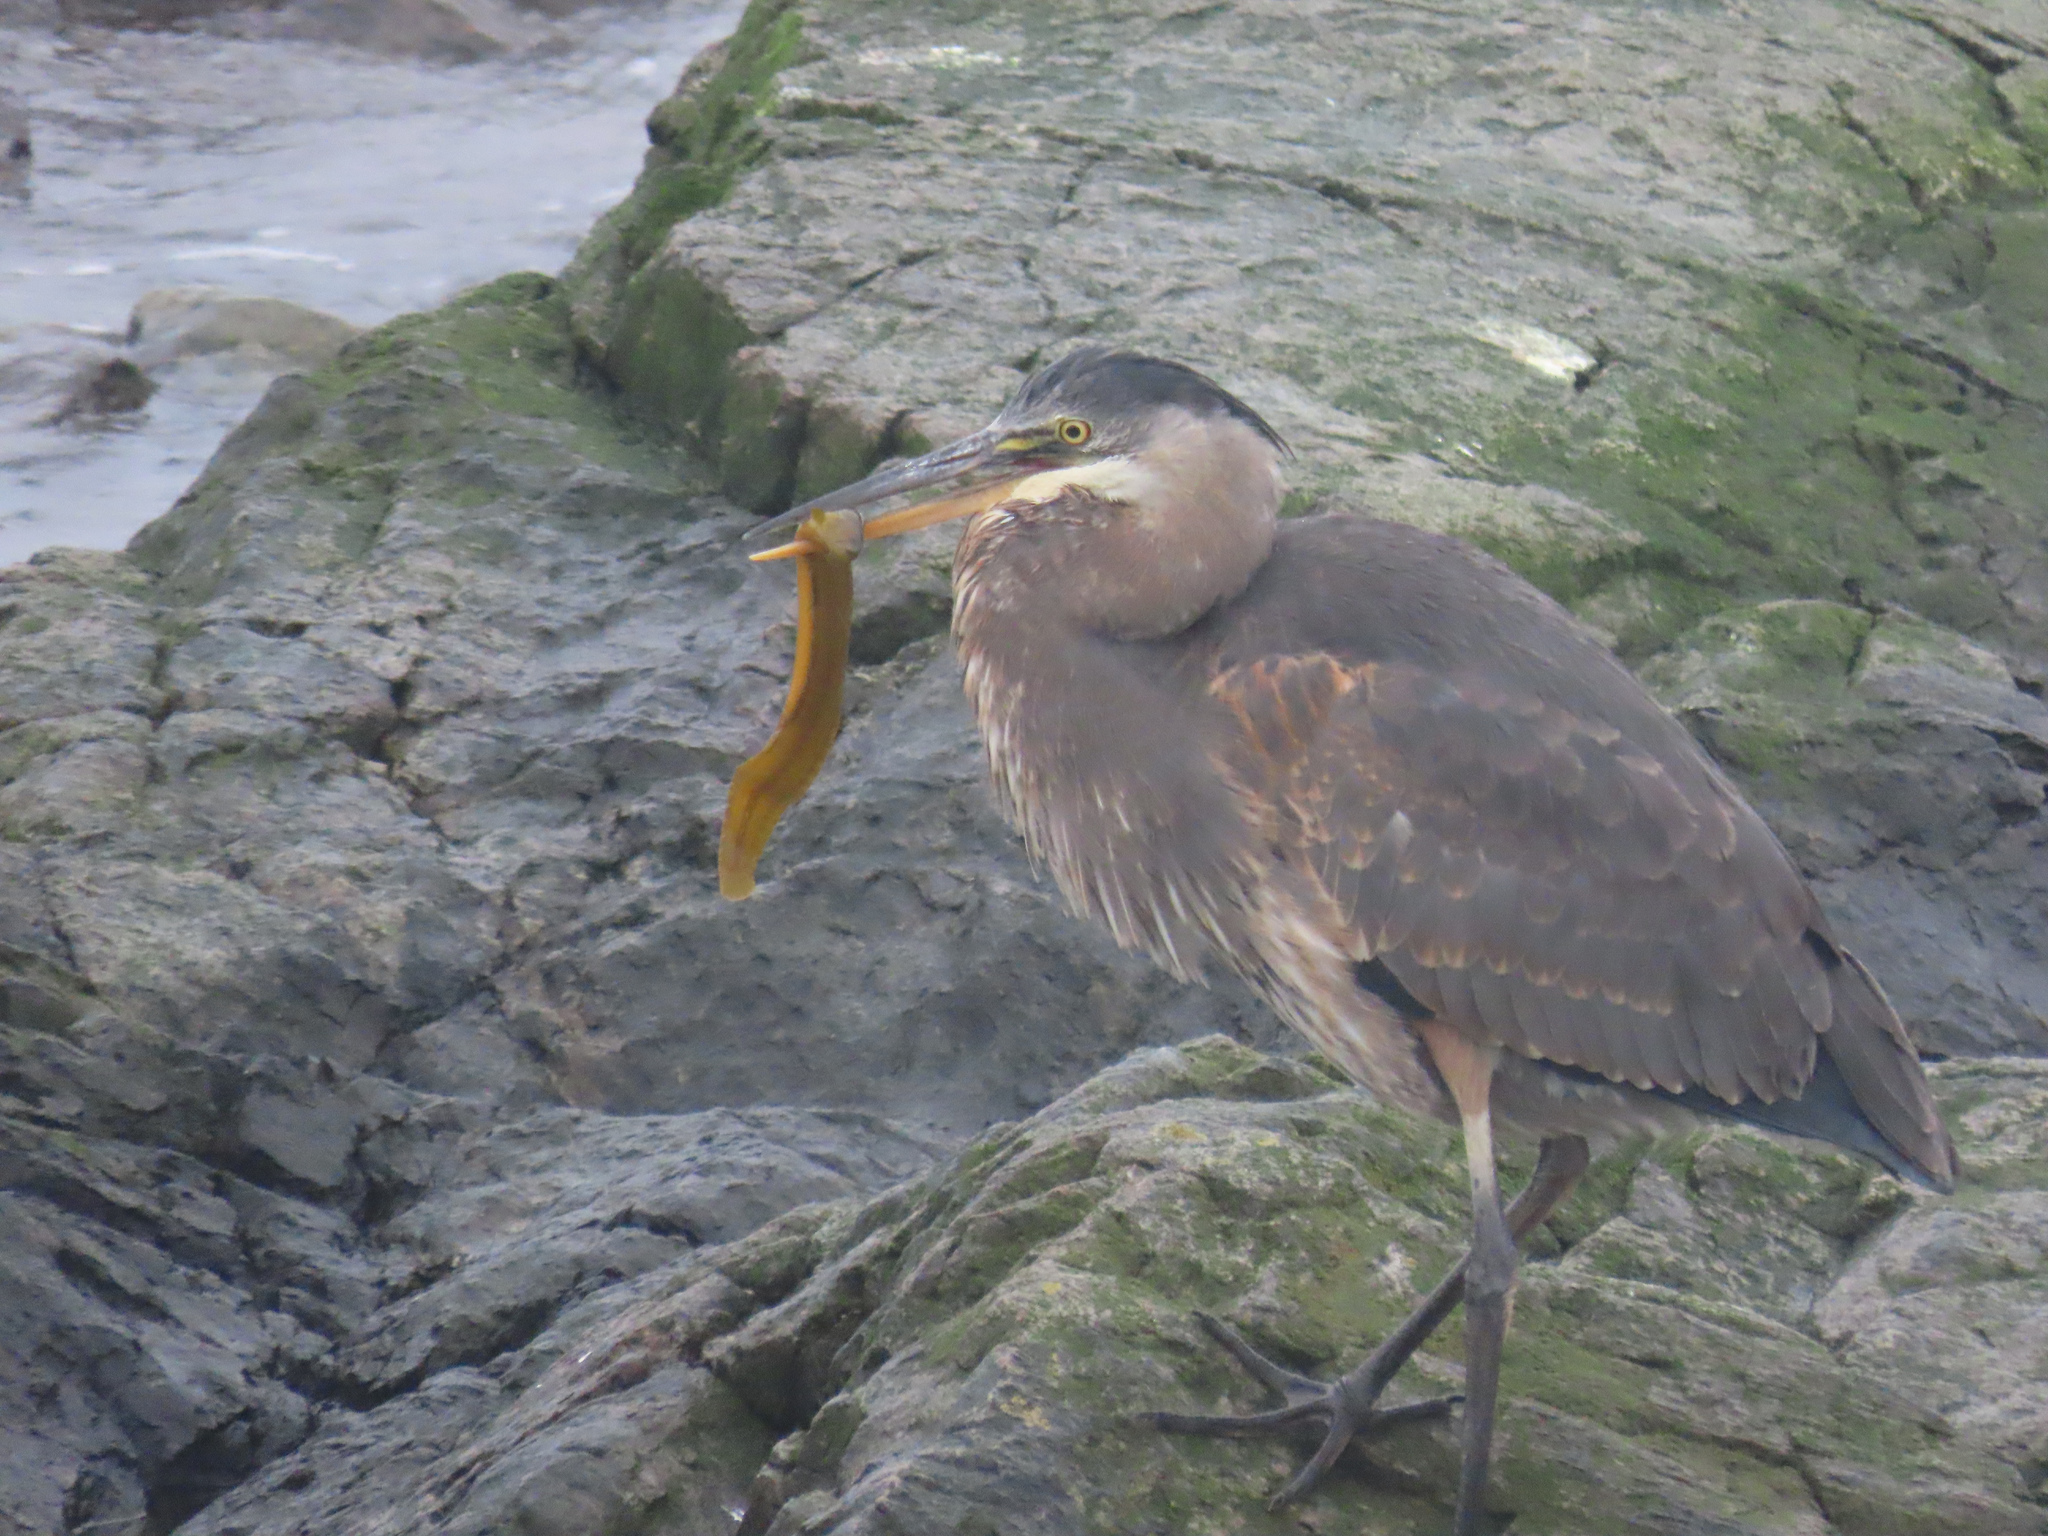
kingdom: Animalia
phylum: Chordata
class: Aves
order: Pelecaniformes
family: Ardeidae
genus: Ardea
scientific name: Ardea herodias
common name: Great blue heron
